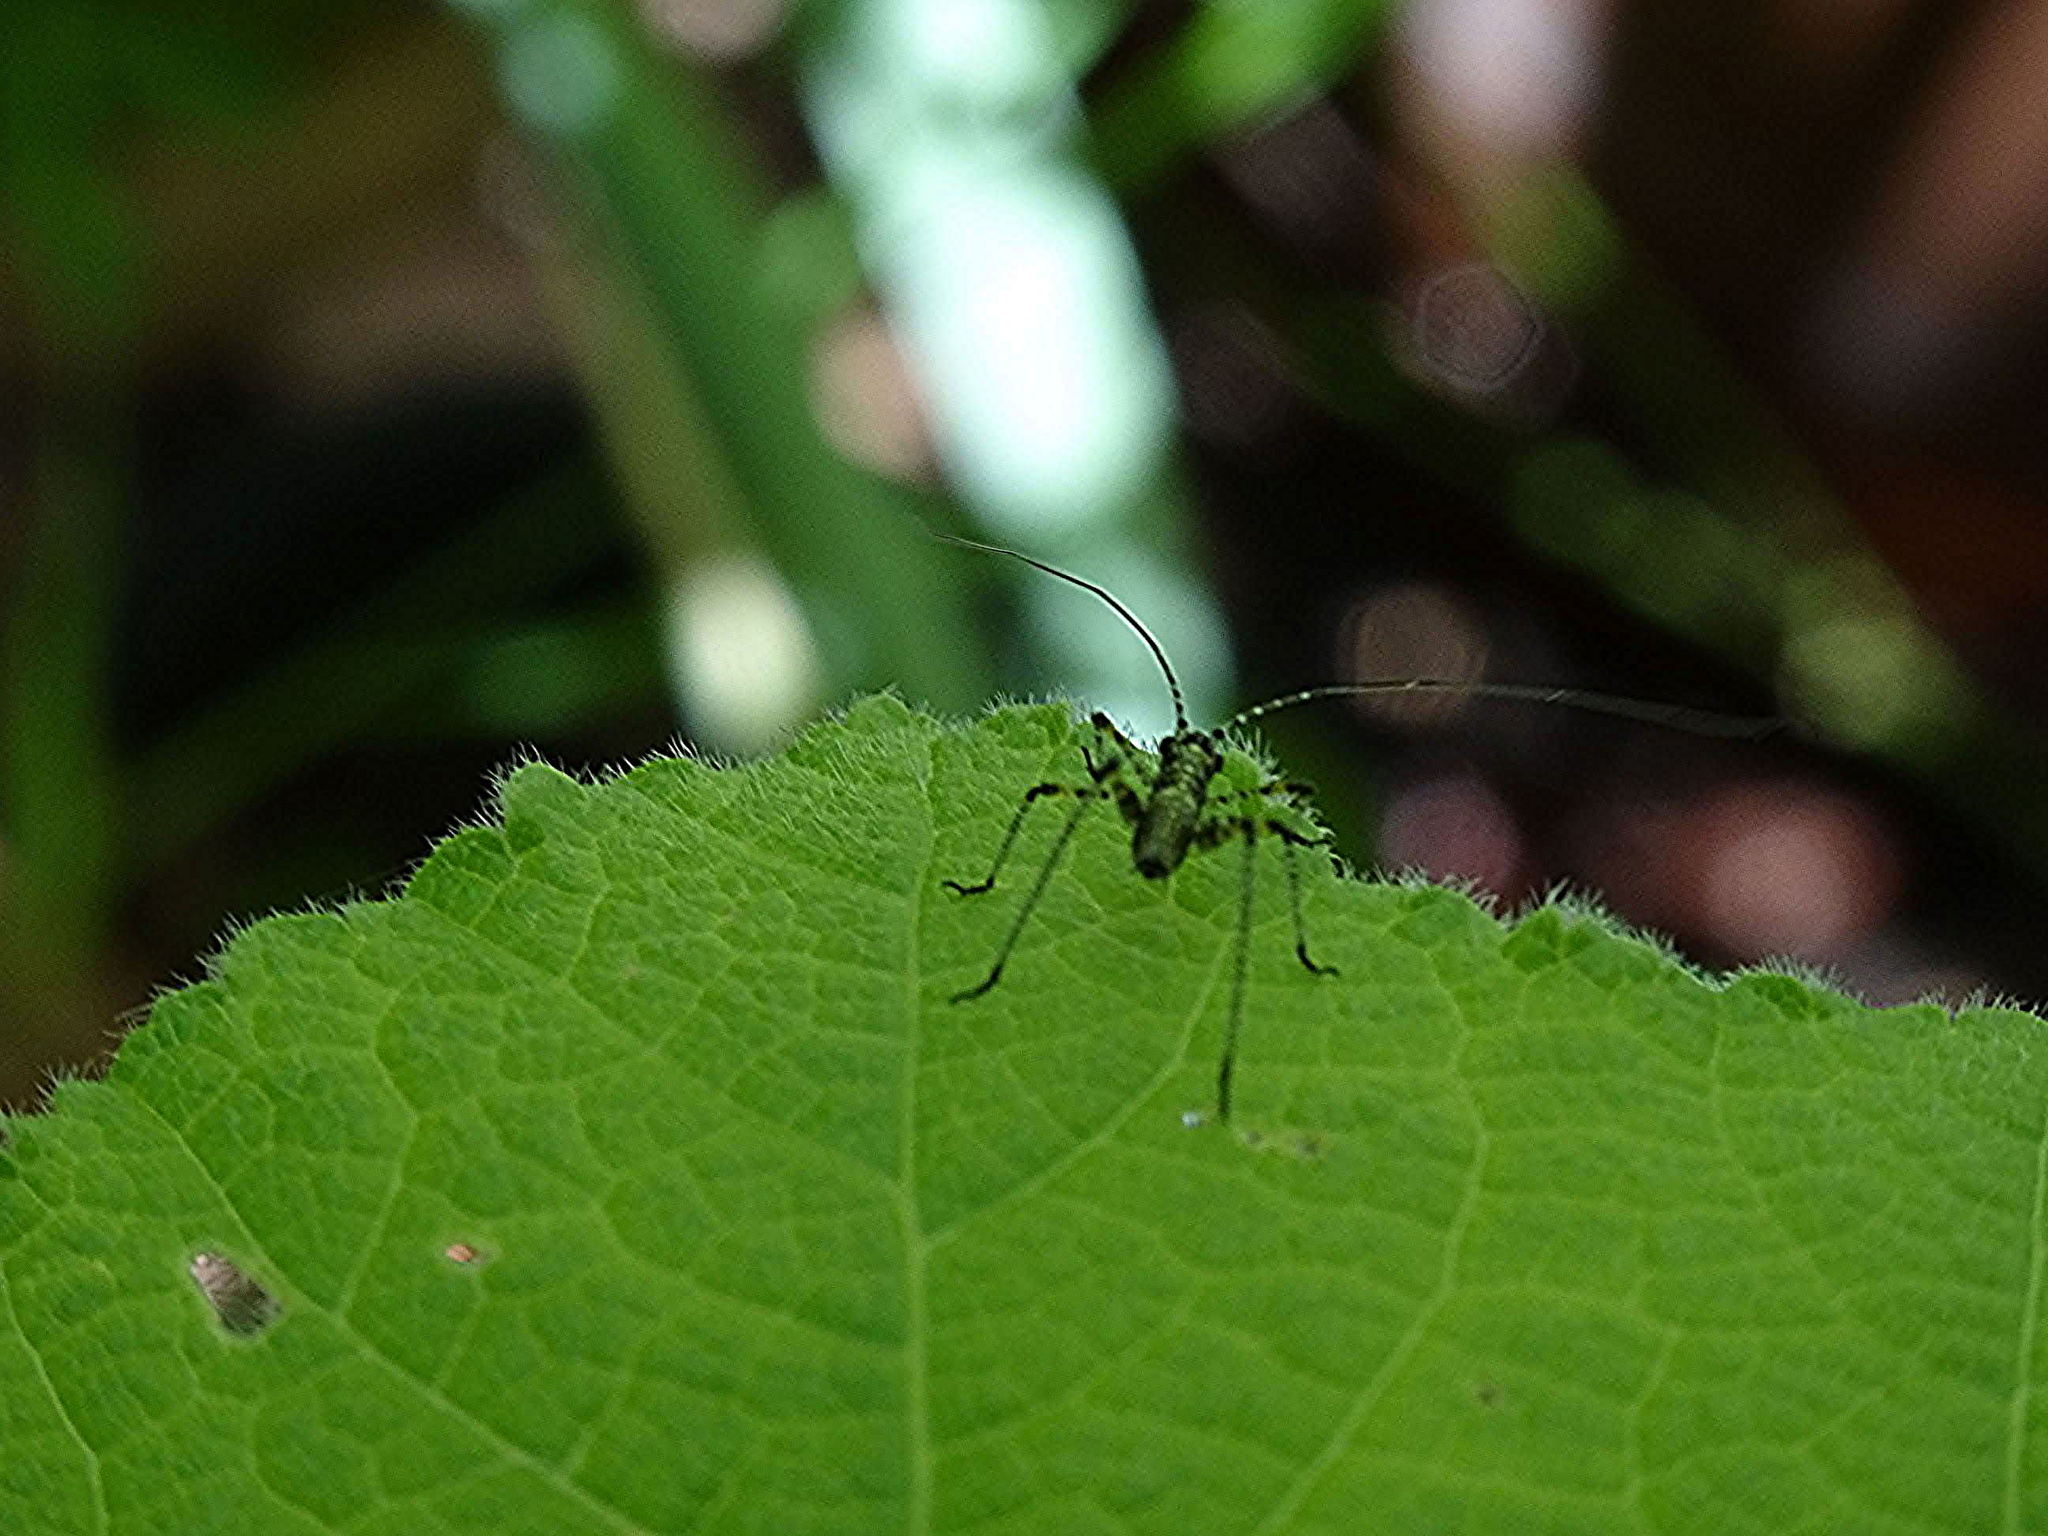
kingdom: Animalia
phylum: Arthropoda
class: Insecta
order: Orthoptera
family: Tettigoniidae
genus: Phaneroptera
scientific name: Phaneroptera
